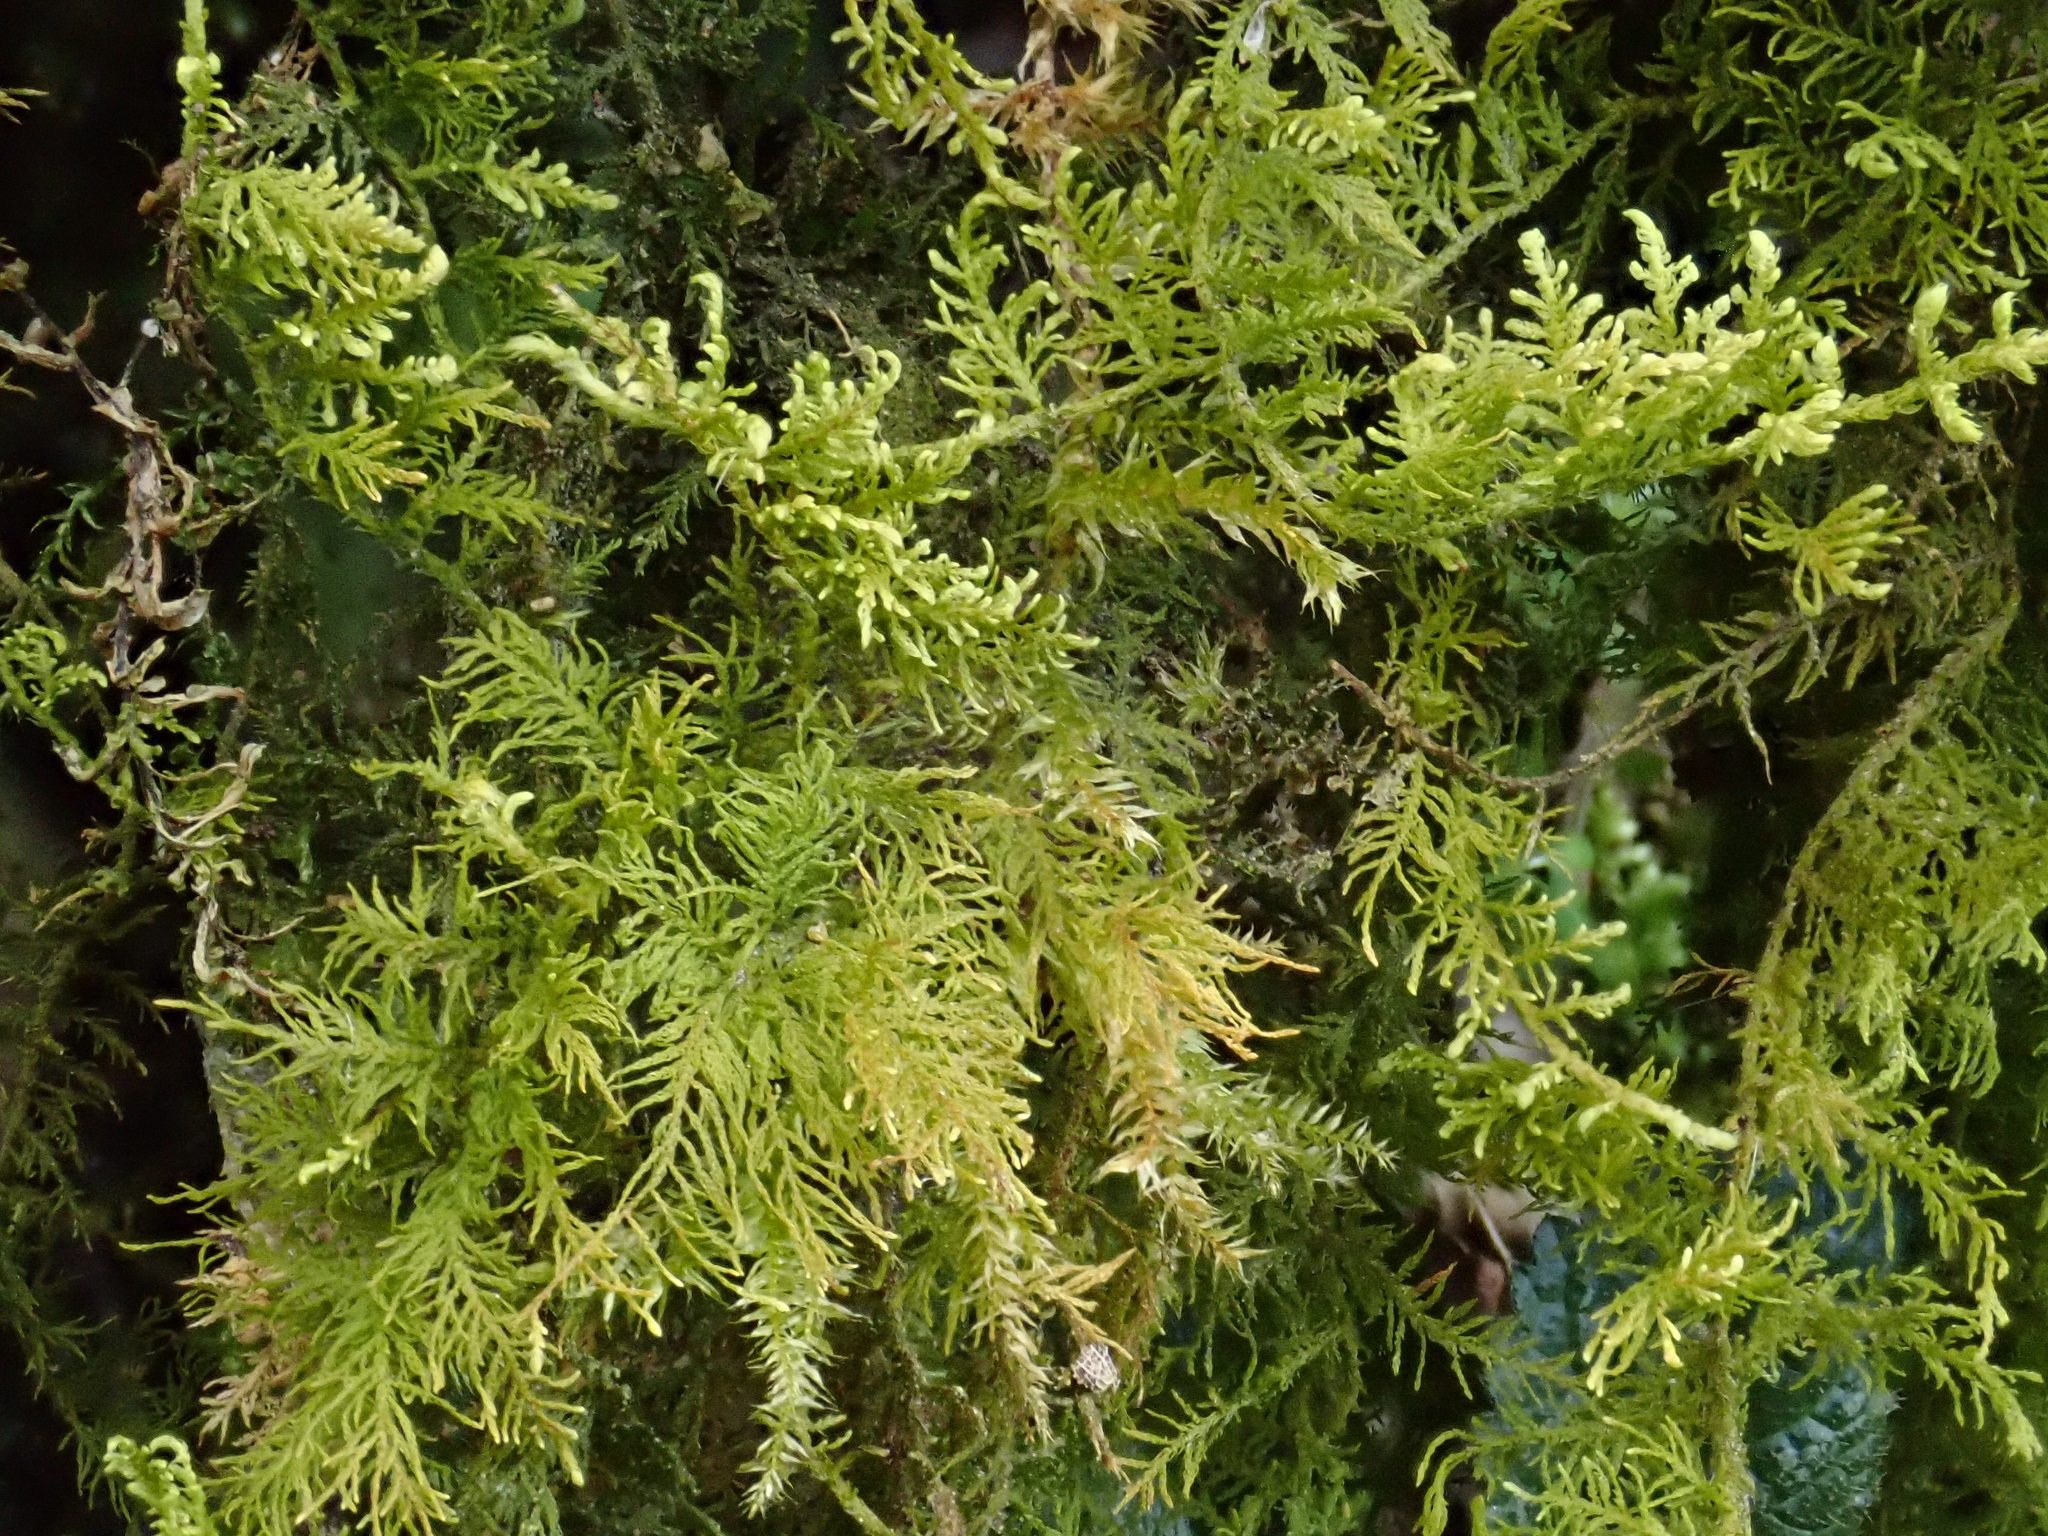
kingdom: Plantae
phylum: Bryophyta
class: Bryopsida
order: Hypnales
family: Thuidiaceae
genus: Thuidium
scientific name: Thuidium delicatulum
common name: Delicate fern moss
